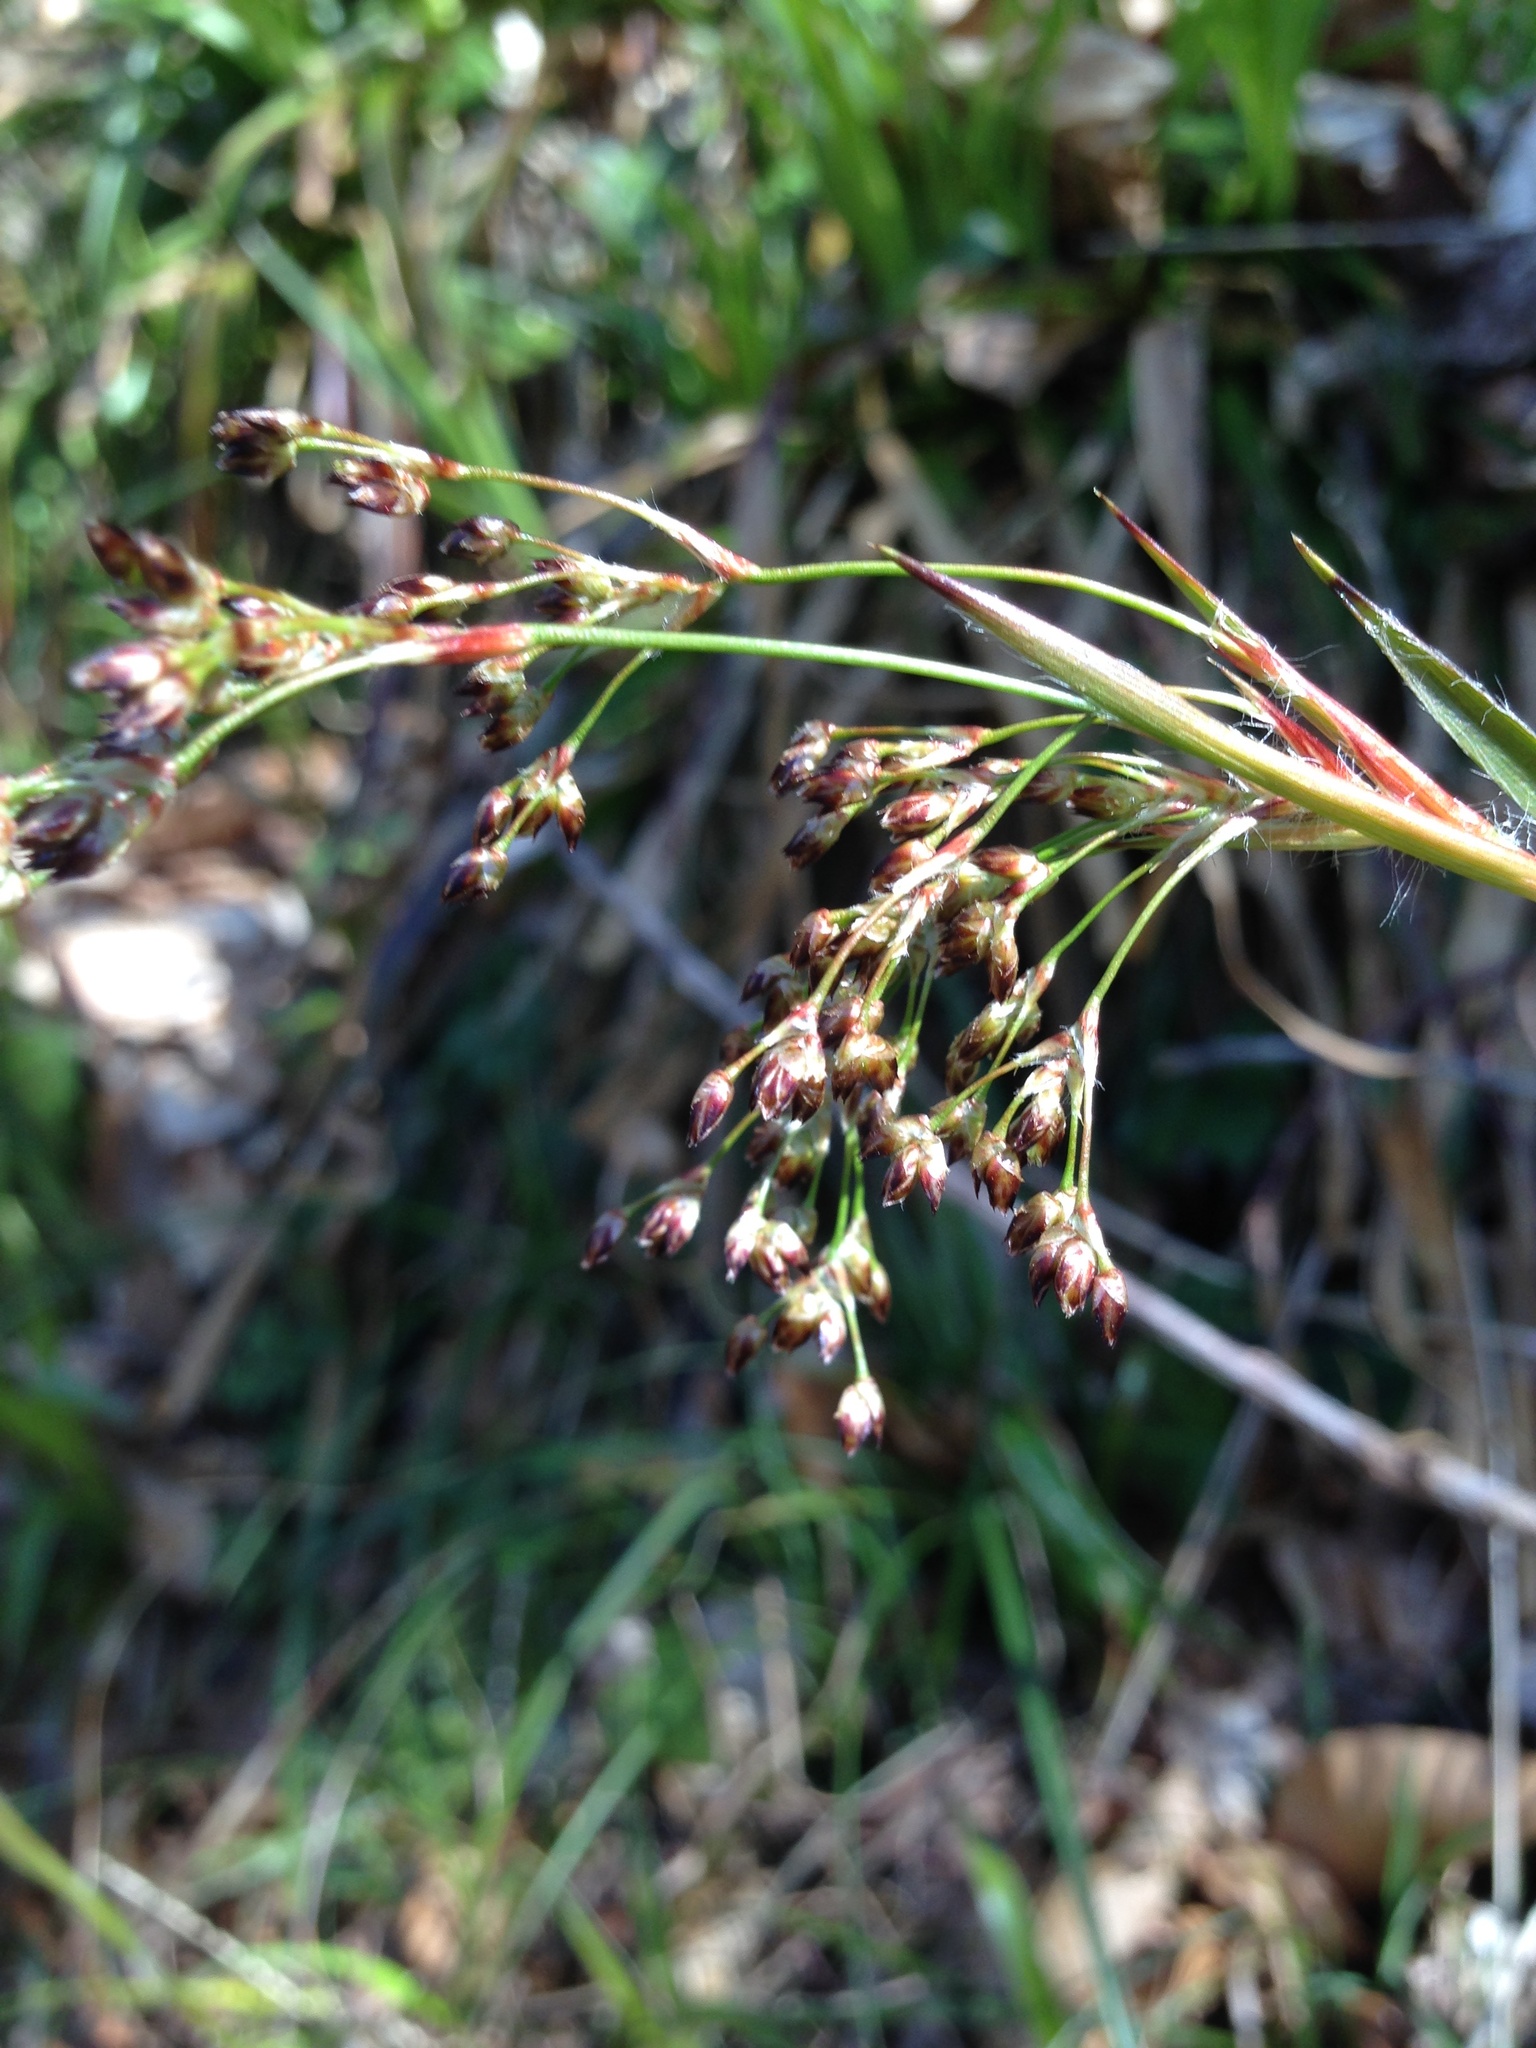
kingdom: Plantae
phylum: Tracheophyta
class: Liliopsida
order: Poales
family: Juncaceae
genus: Luzula
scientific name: Luzula sylvatica
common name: Great wood-rush
